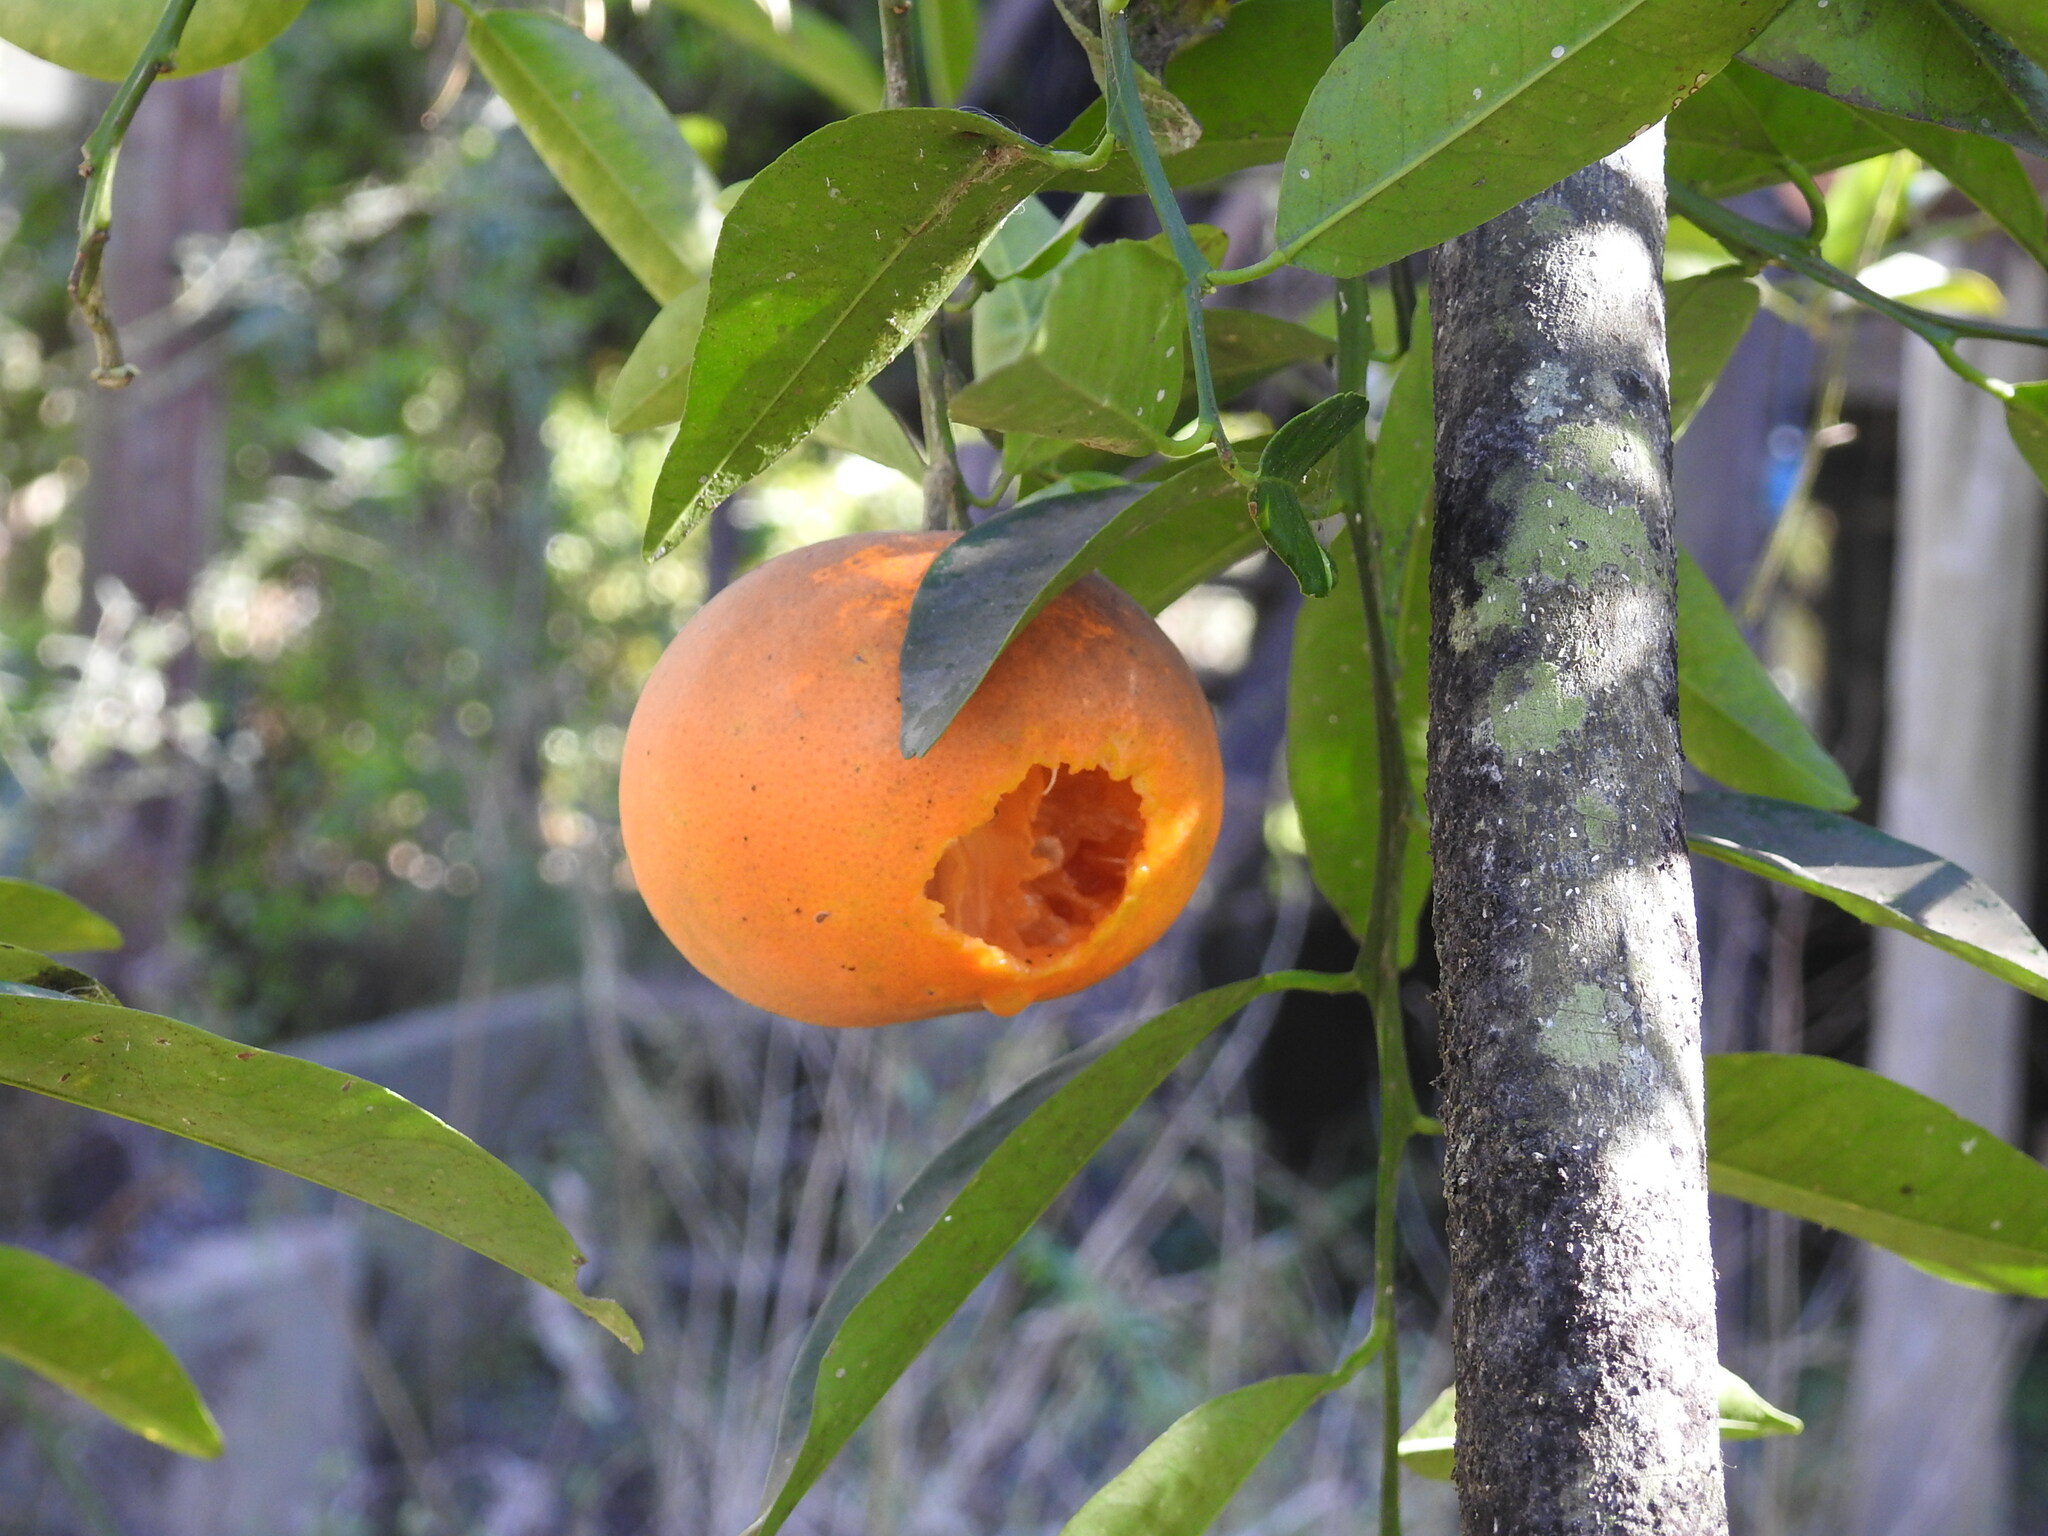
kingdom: Animalia
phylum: Chordata
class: Aves
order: Passeriformes
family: Icteridae
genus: Cacicus
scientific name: Cacicus solitarius
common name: Solitary cacique
